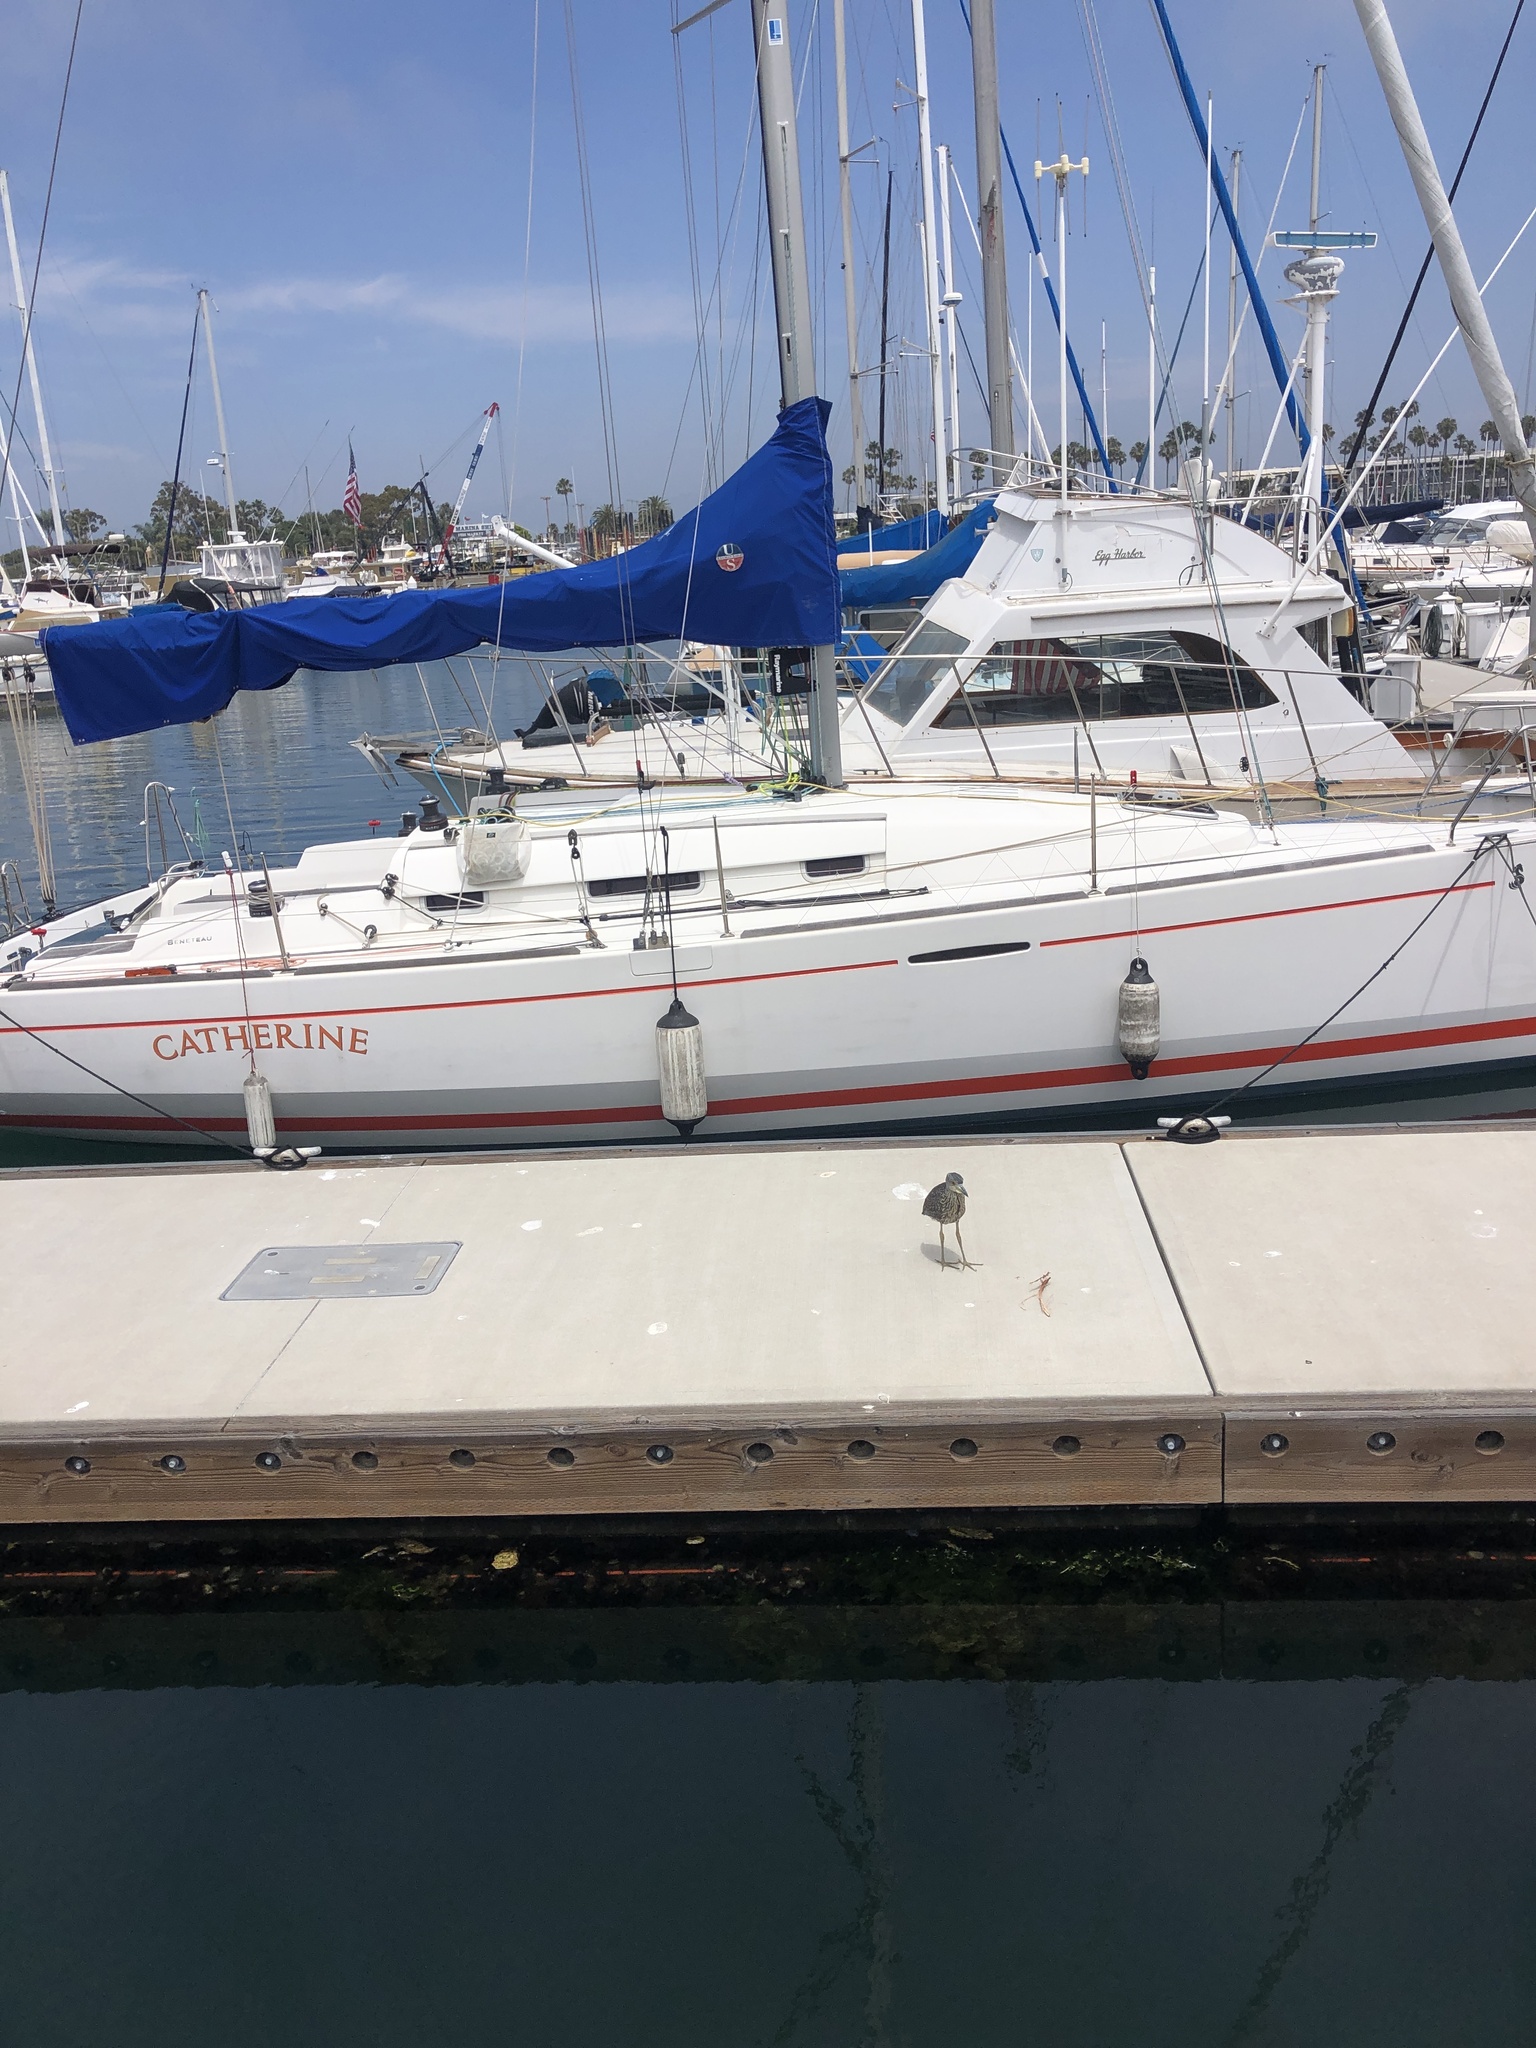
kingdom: Animalia
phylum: Chordata
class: Aves
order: Pelecaniformes
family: Ardeidae
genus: Nyctanassa
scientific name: Nyctanassa violacea
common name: Yellow-crowned night heron
